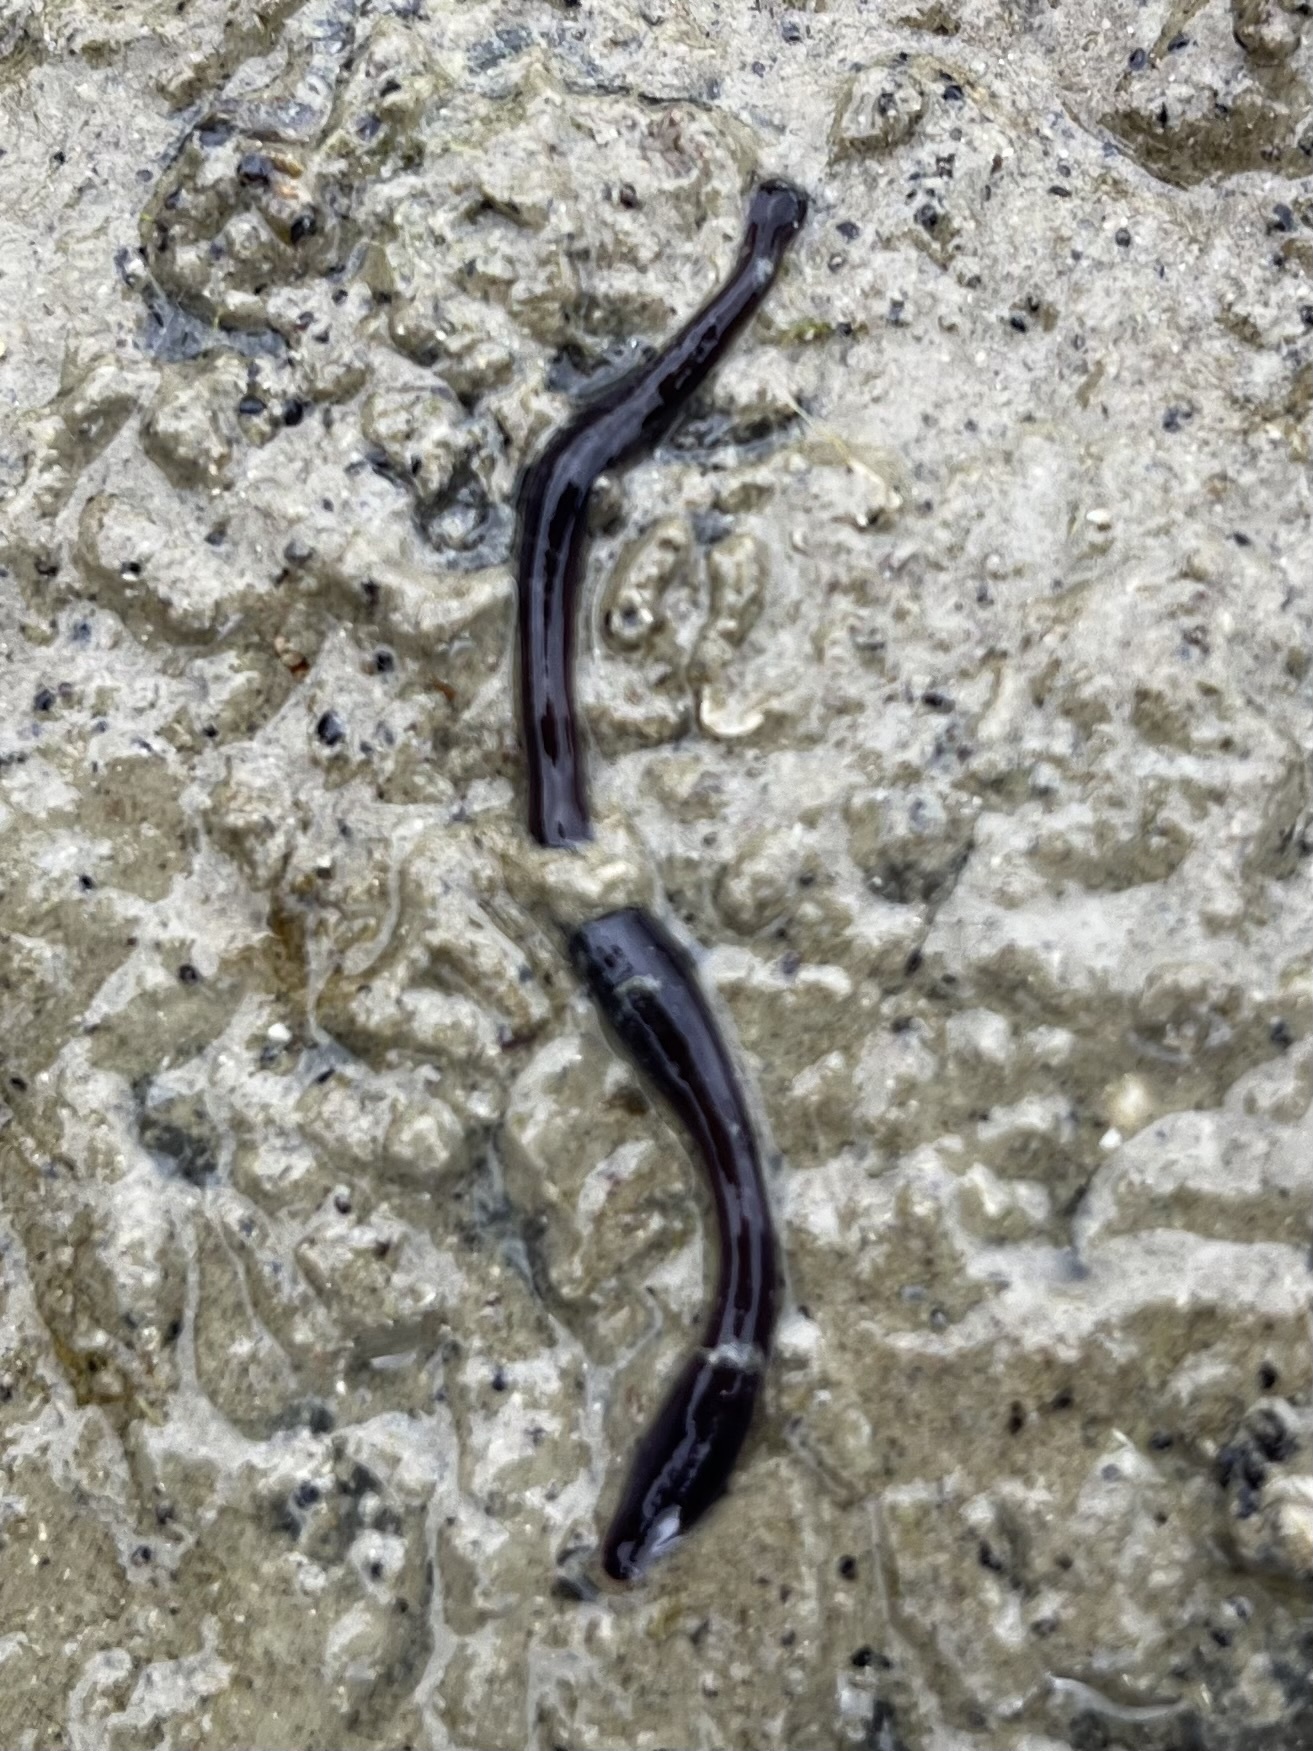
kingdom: Animalia
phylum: Nemertea
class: Hoplonemertea
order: Monostilifera
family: Neesiidae
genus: Paranemertes
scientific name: Paranemertes peregrina
